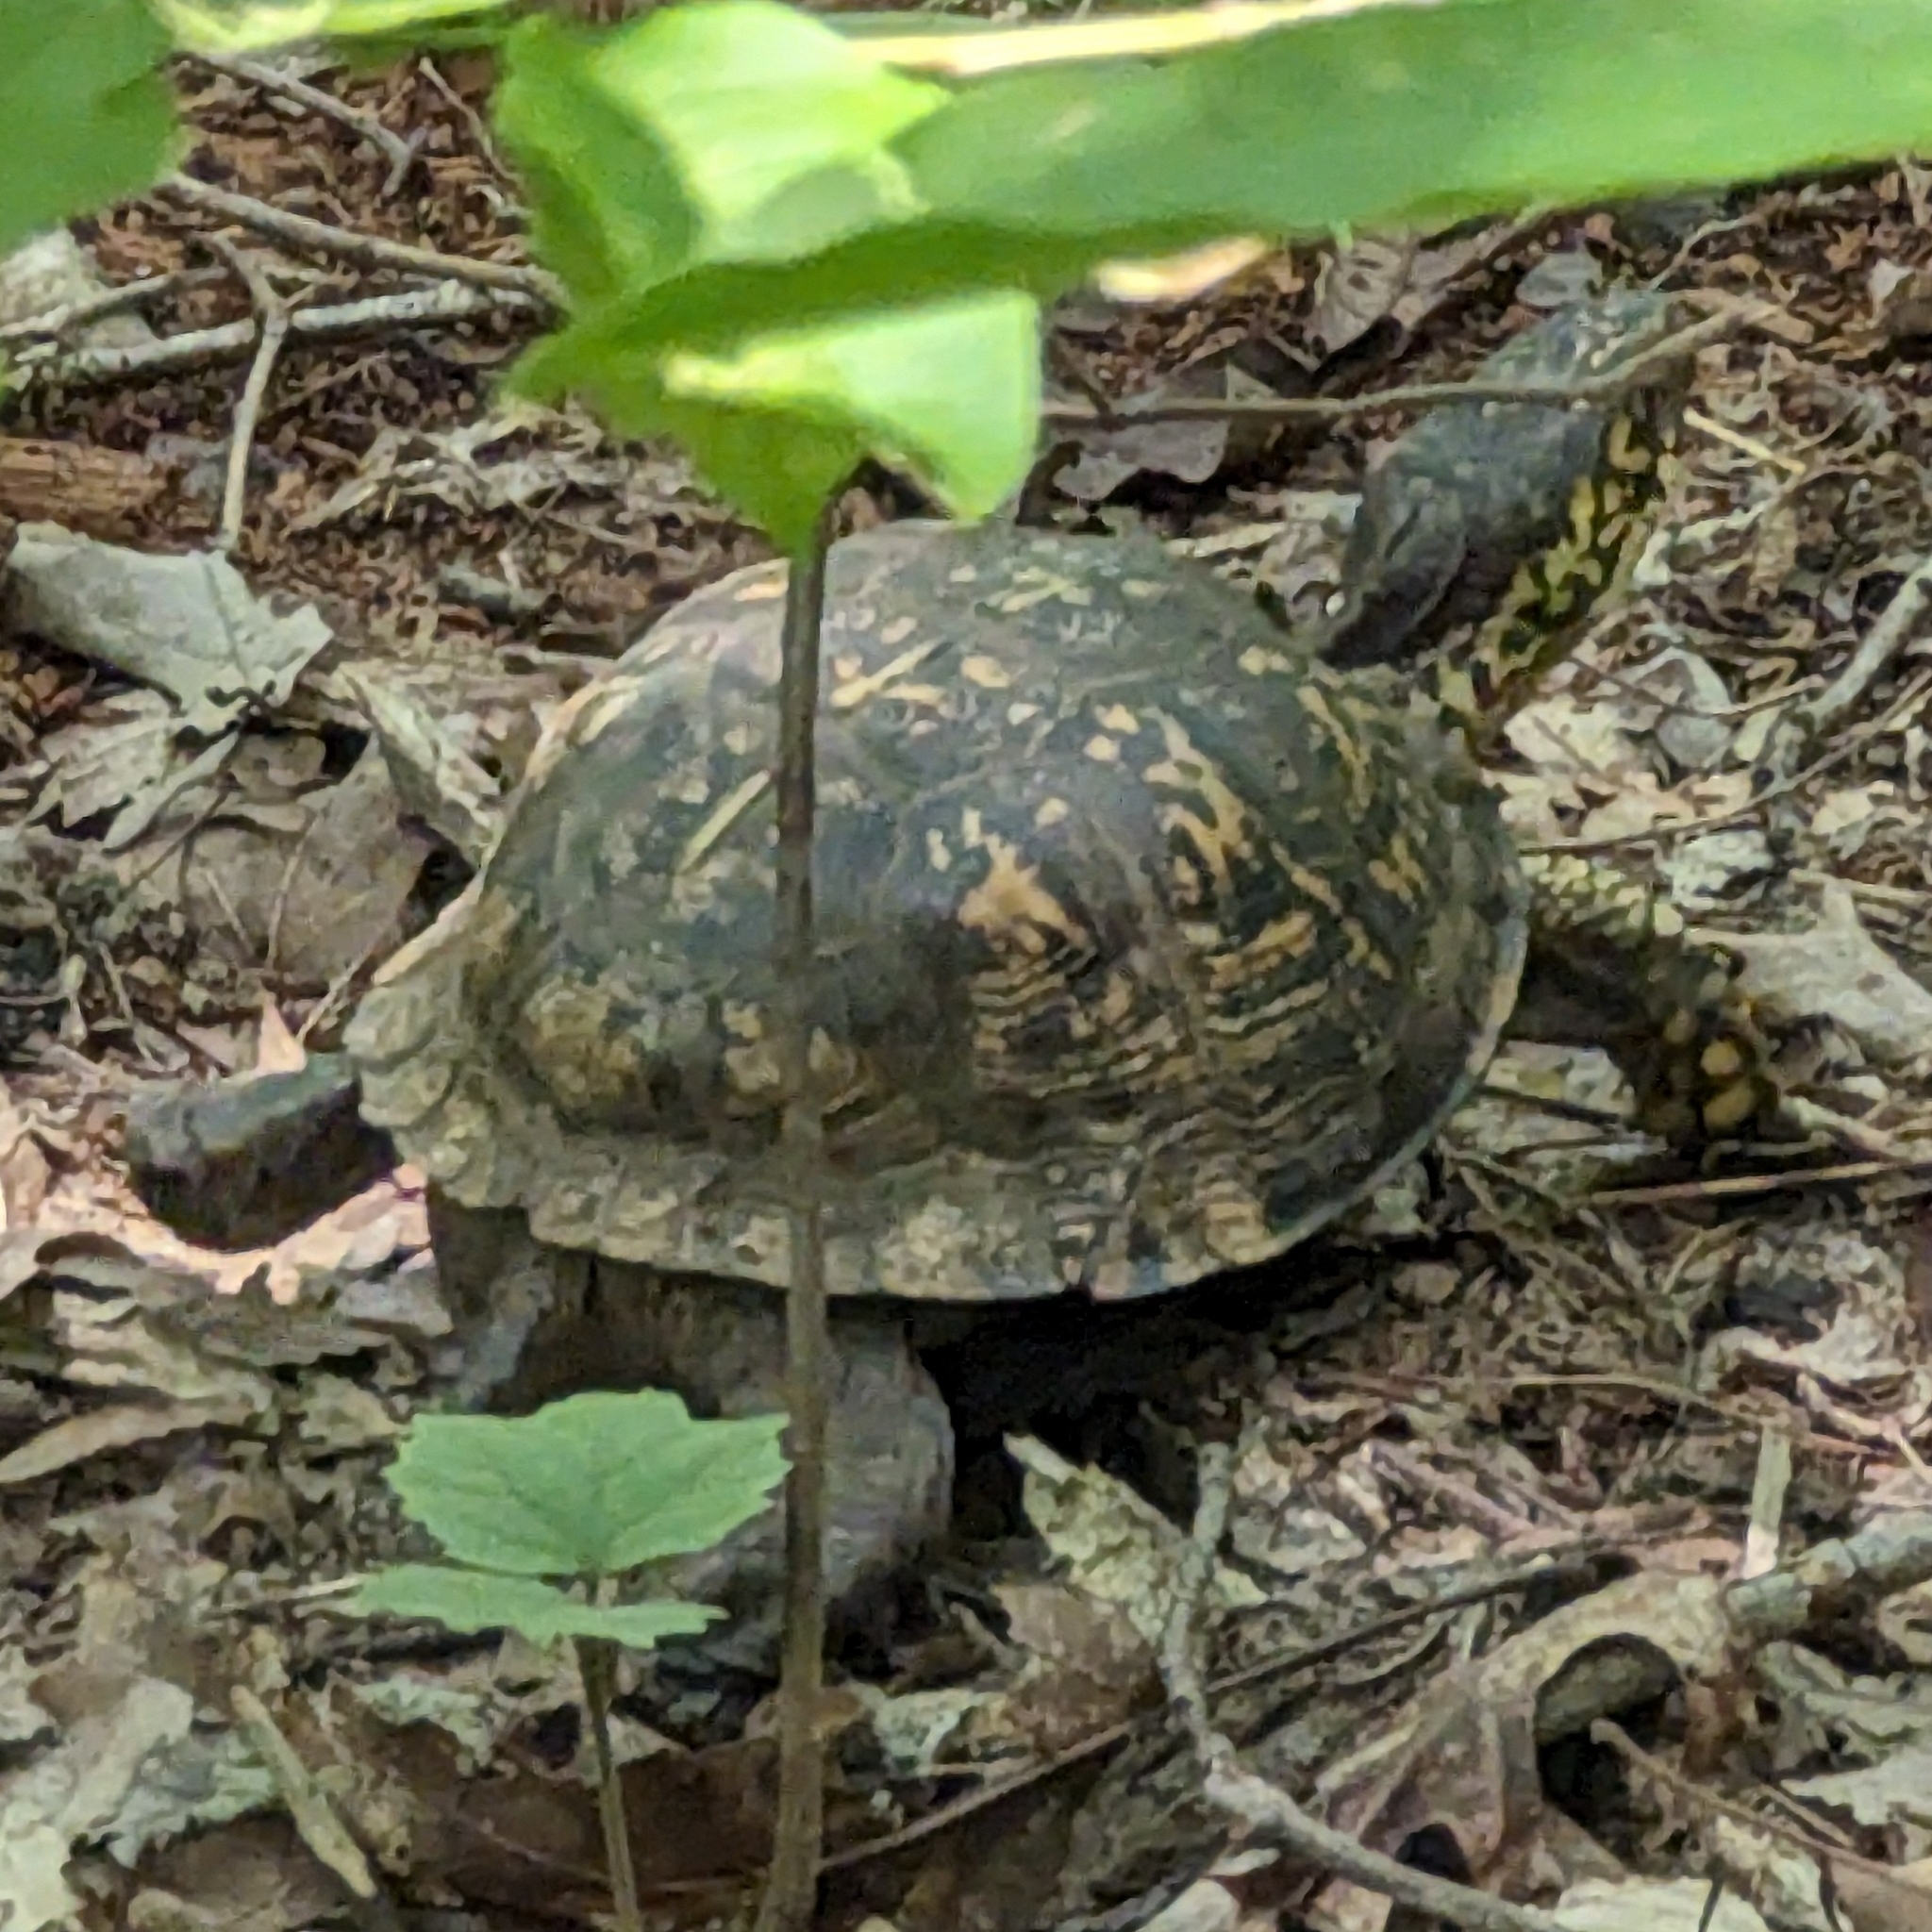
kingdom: Animalia
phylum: Chordata
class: Testudines
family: Emydidae
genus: Terrapene
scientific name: Terrapene carolina
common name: Common box turtle
